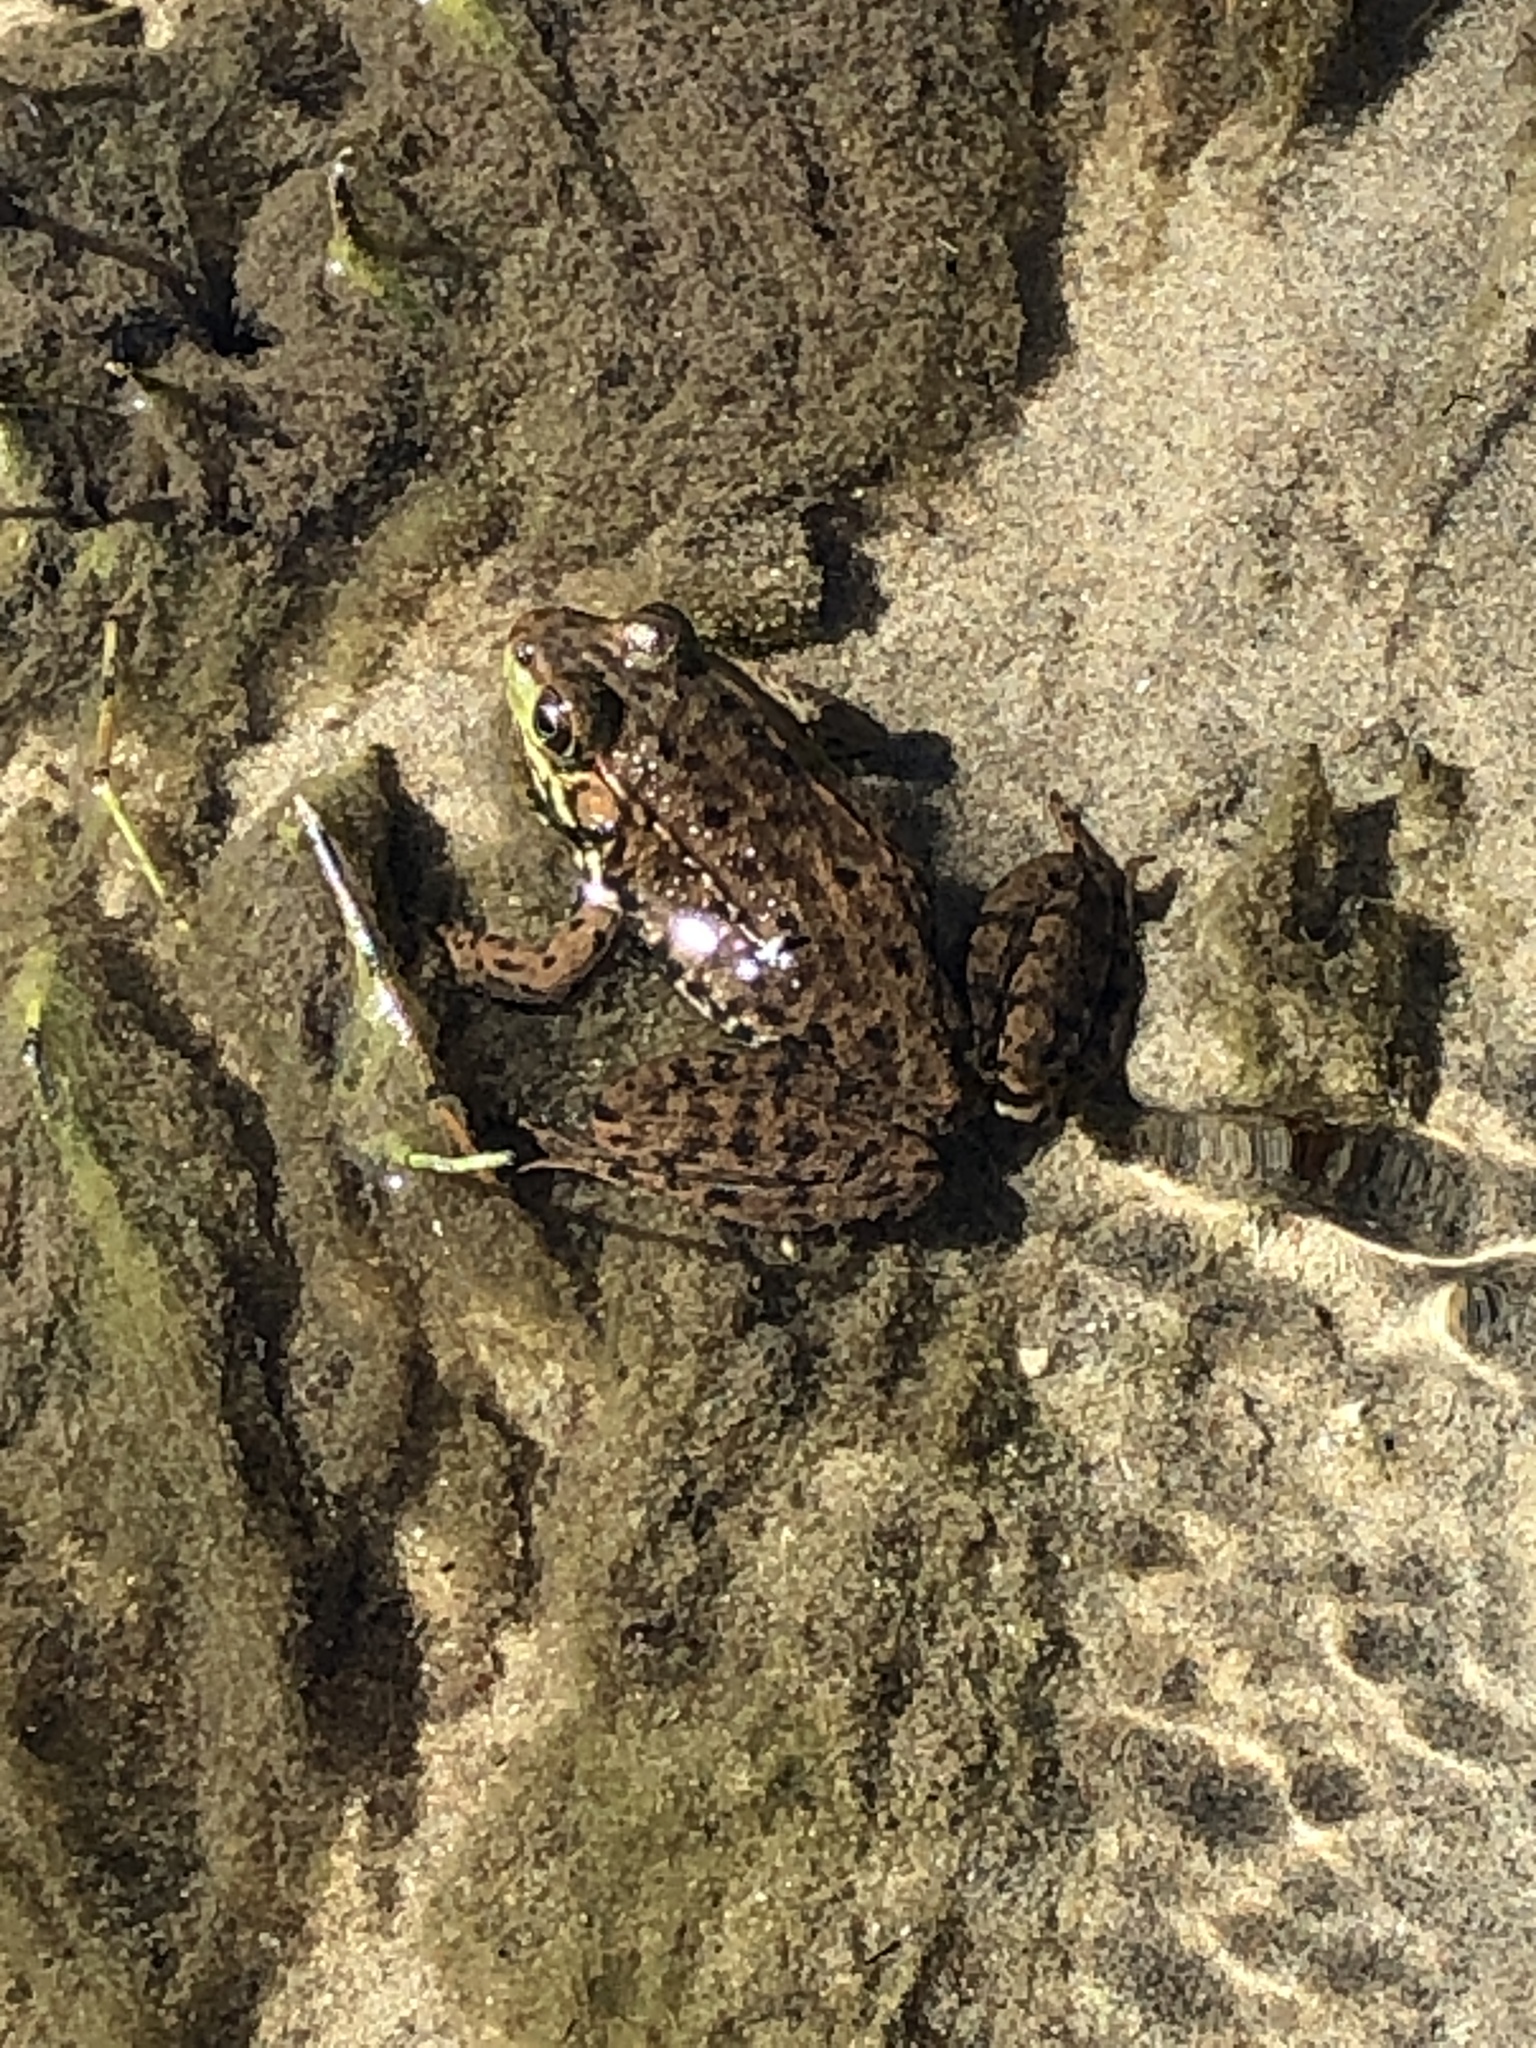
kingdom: Animalia
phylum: Chordata
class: Amphibia
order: Anura
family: Ranidae
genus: Lithobates
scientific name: Lithobates clamitans
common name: Green frog
